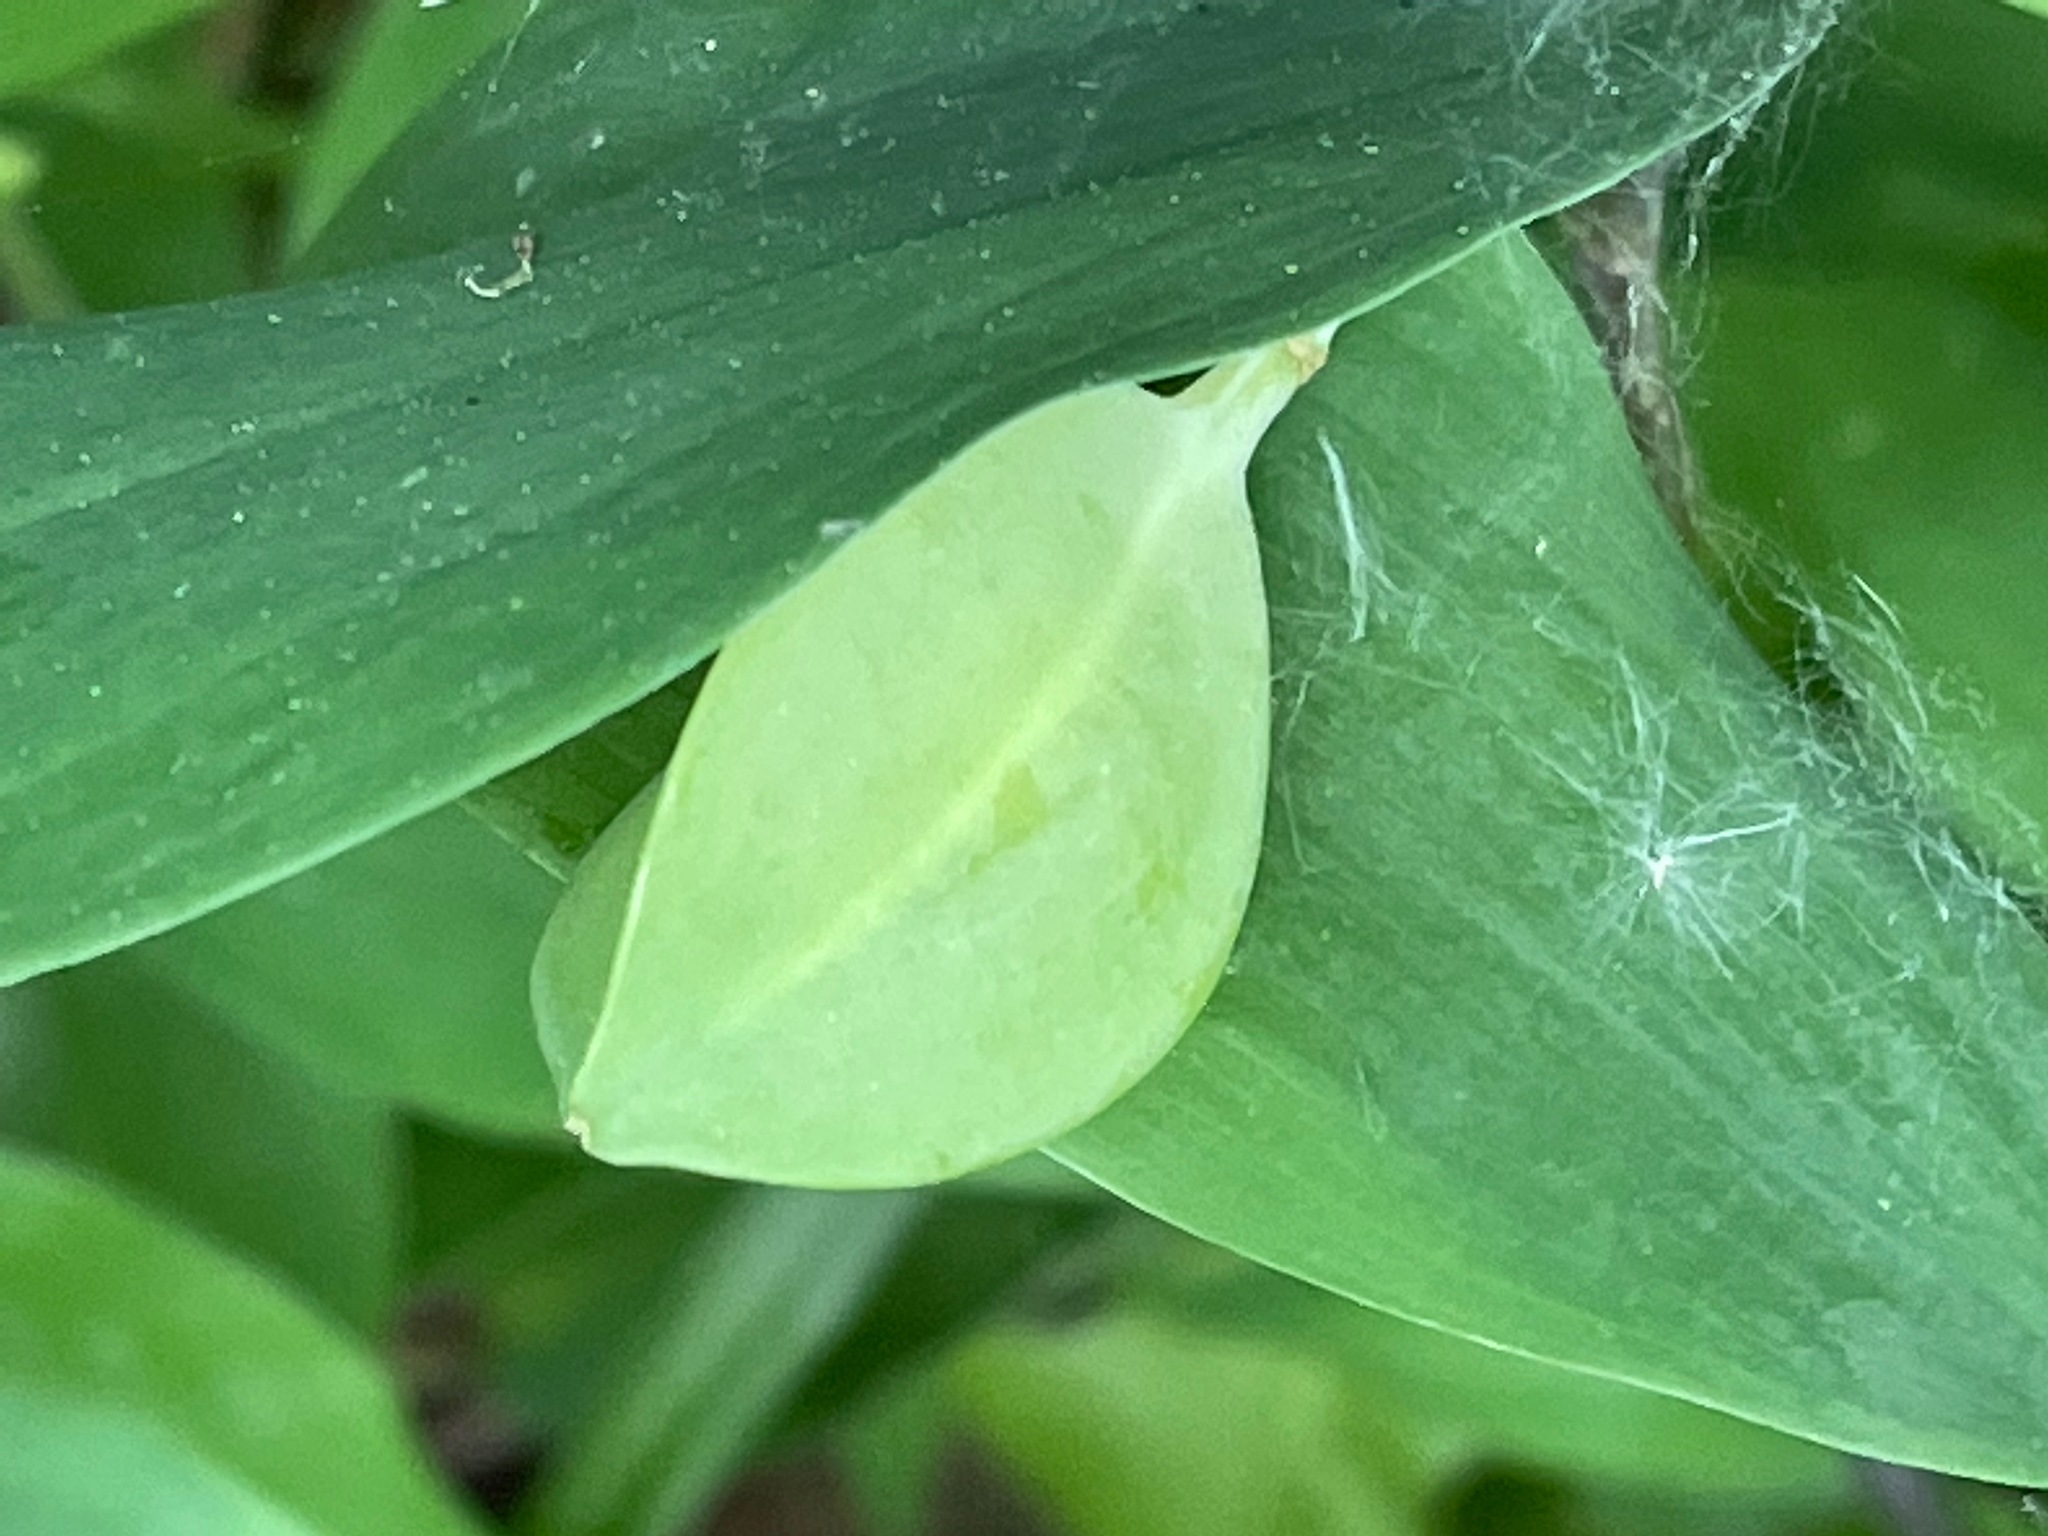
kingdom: Plantae
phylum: Tracheophyta
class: Liliopsida
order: Liliales
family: Colchicaceae
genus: Uvularia
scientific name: Uvularia sessilifolia
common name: Straw-lily
